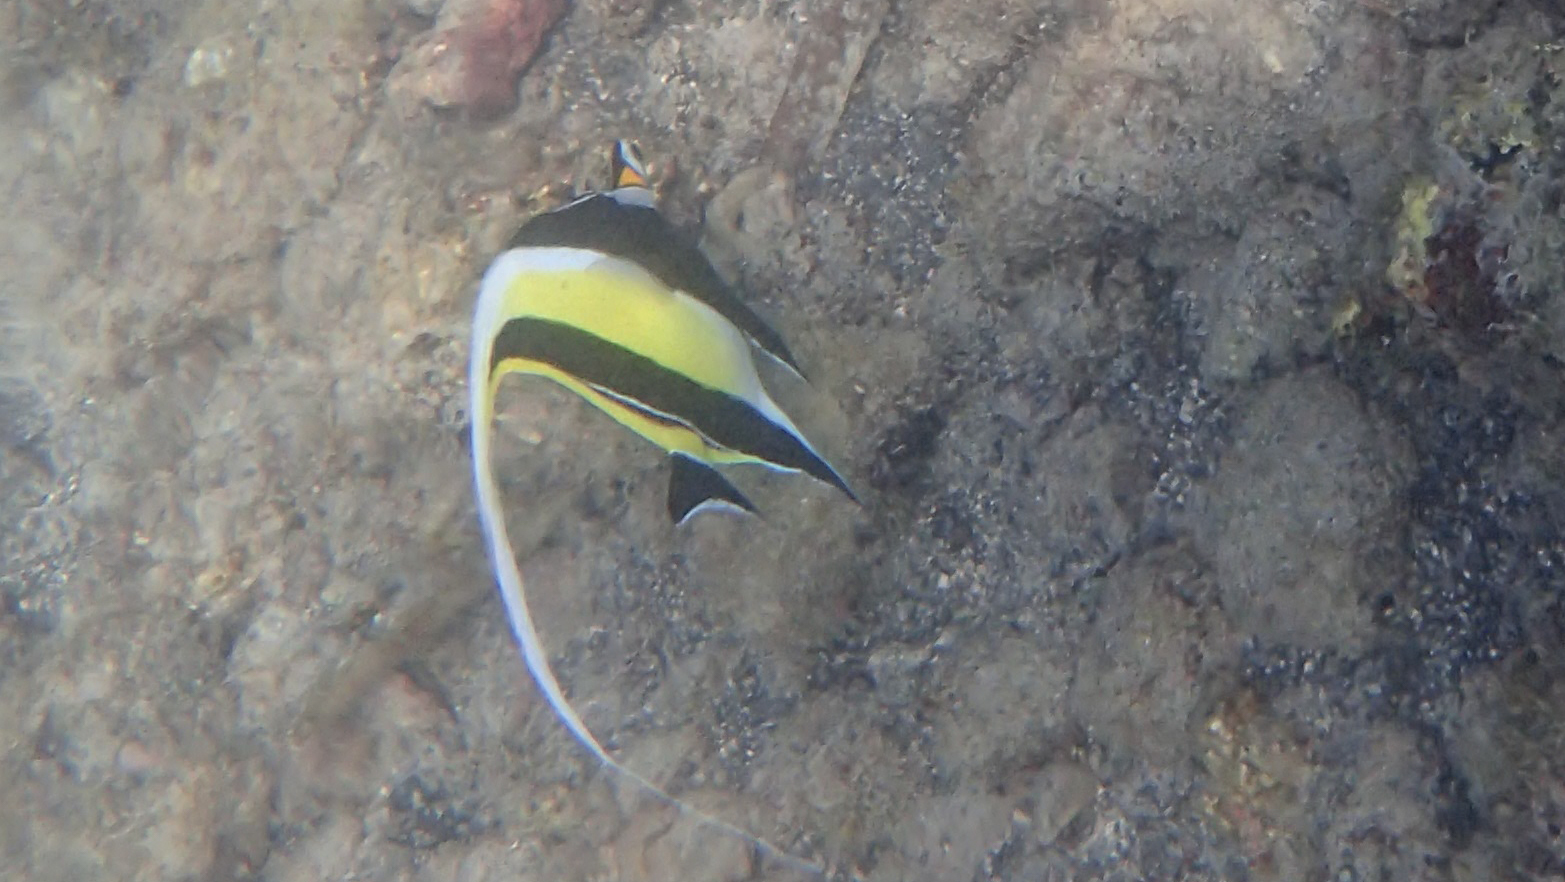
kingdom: Animalia
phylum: Chordata
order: Perciformes
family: Zanclidae
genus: Zanclus
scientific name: Zanclus cornutus
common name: Moorish idol
